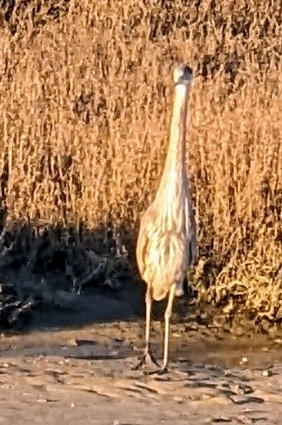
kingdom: Animalia
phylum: Chordata
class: Aves
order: Pelecaniformes
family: Ardeidae
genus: Ardea
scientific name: Ardea herodias
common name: Great blue heron
